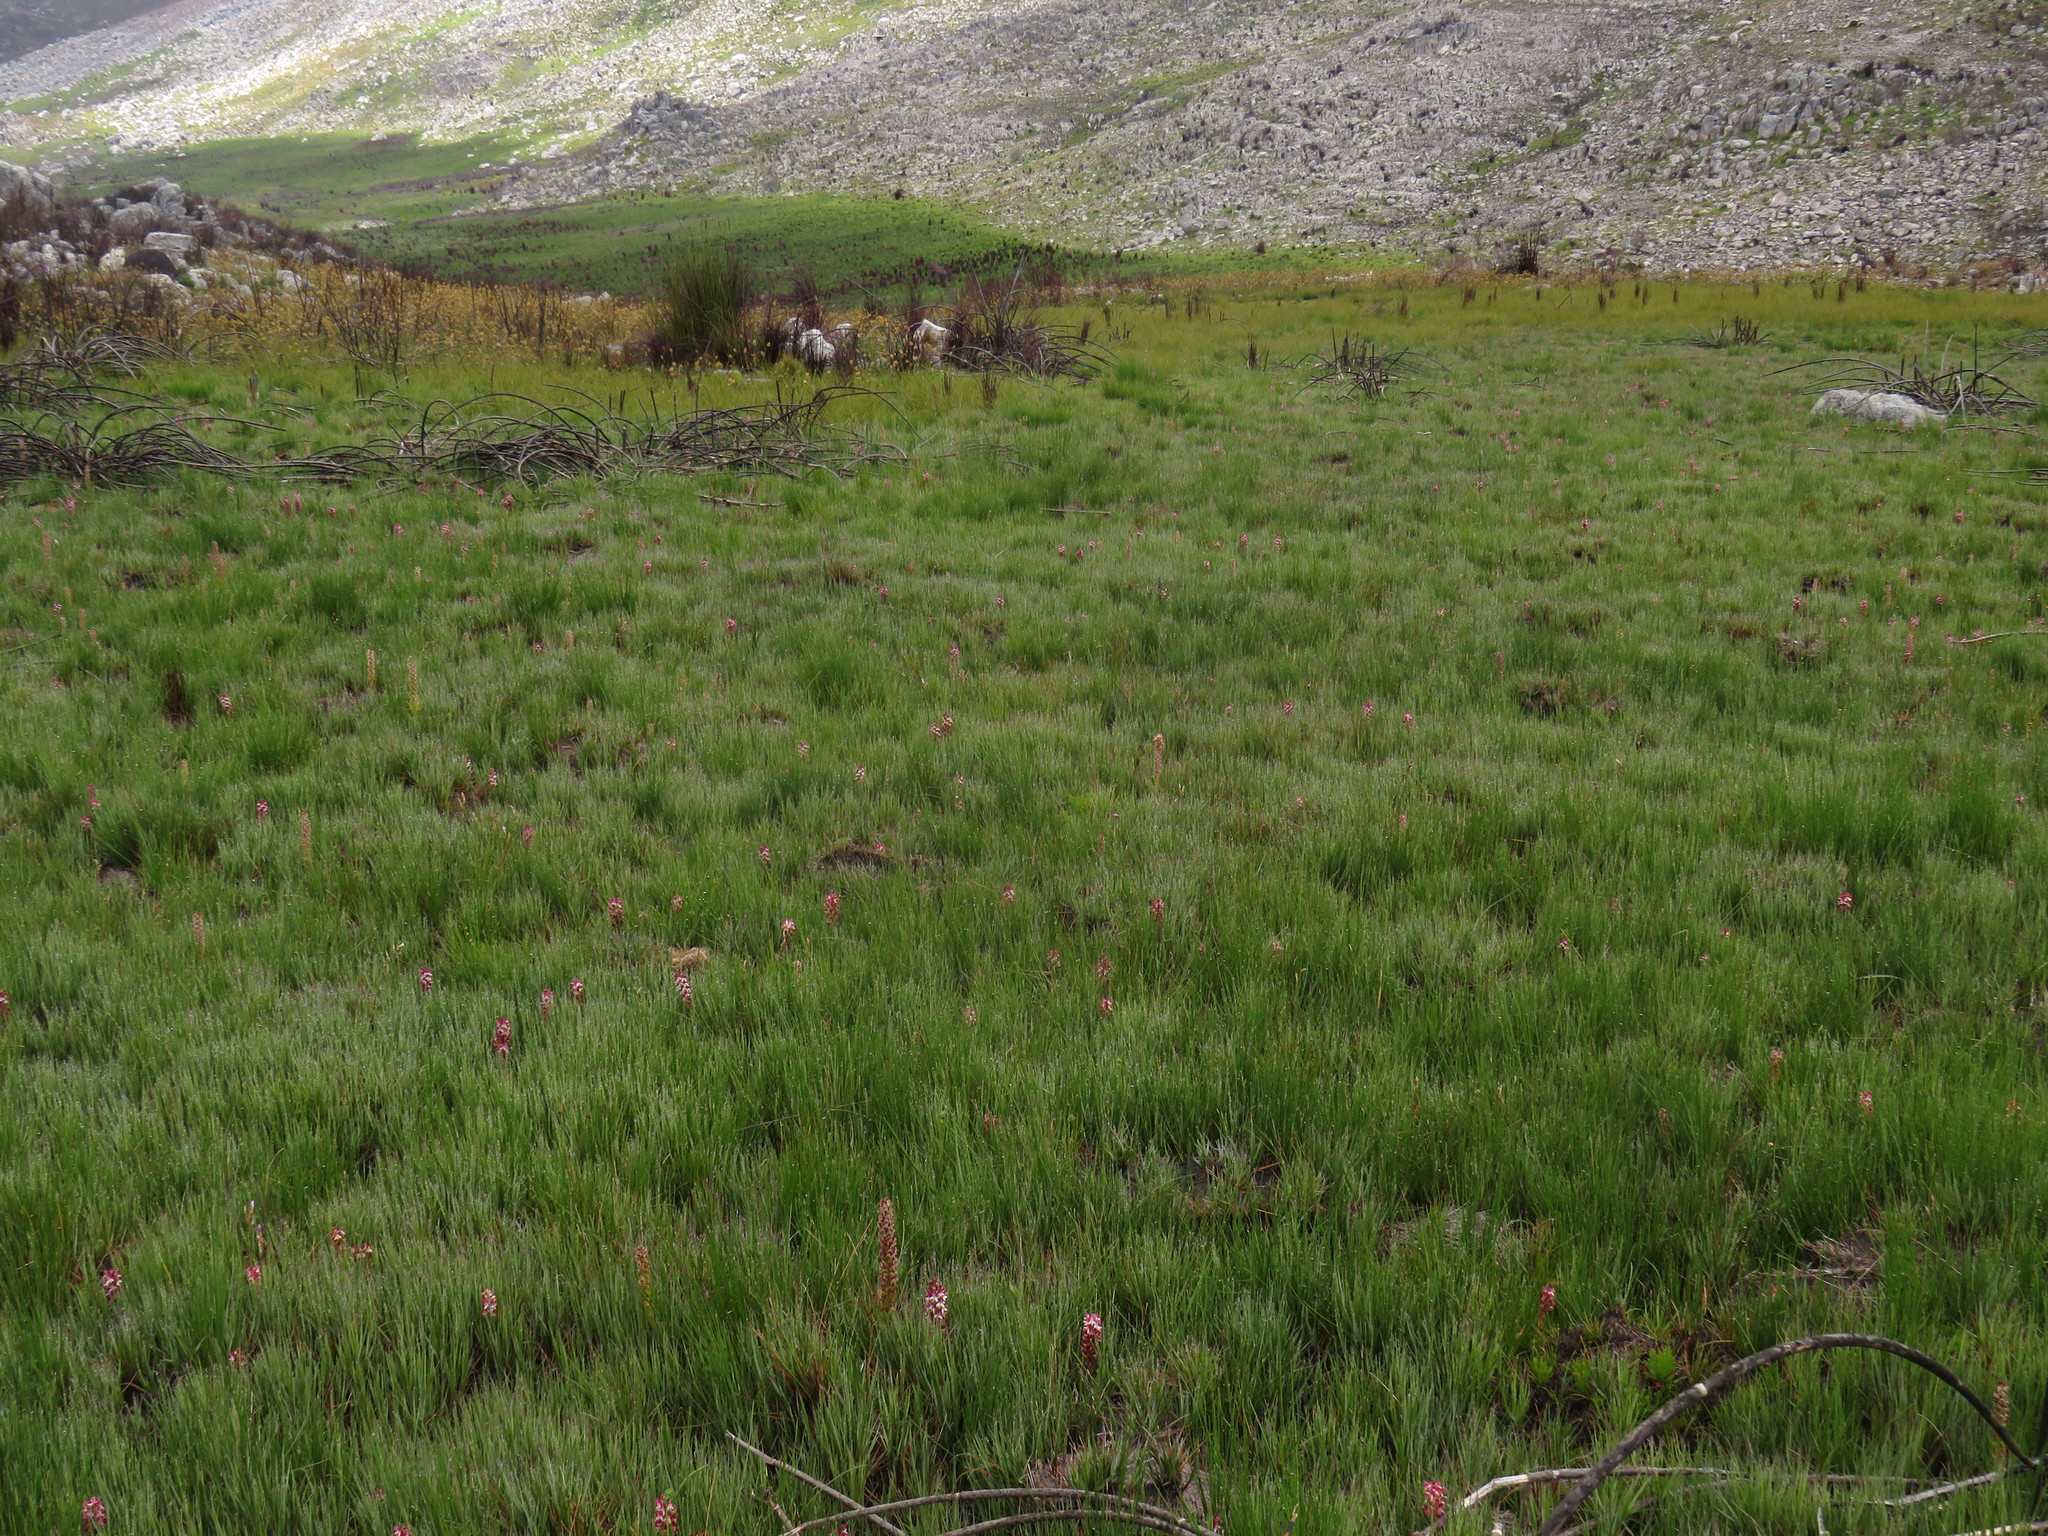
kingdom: Plantae
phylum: Tracheophyta
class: Liliopsida
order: Asparagales
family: Orchidaceae
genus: Disa
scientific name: Disa albomagentea
